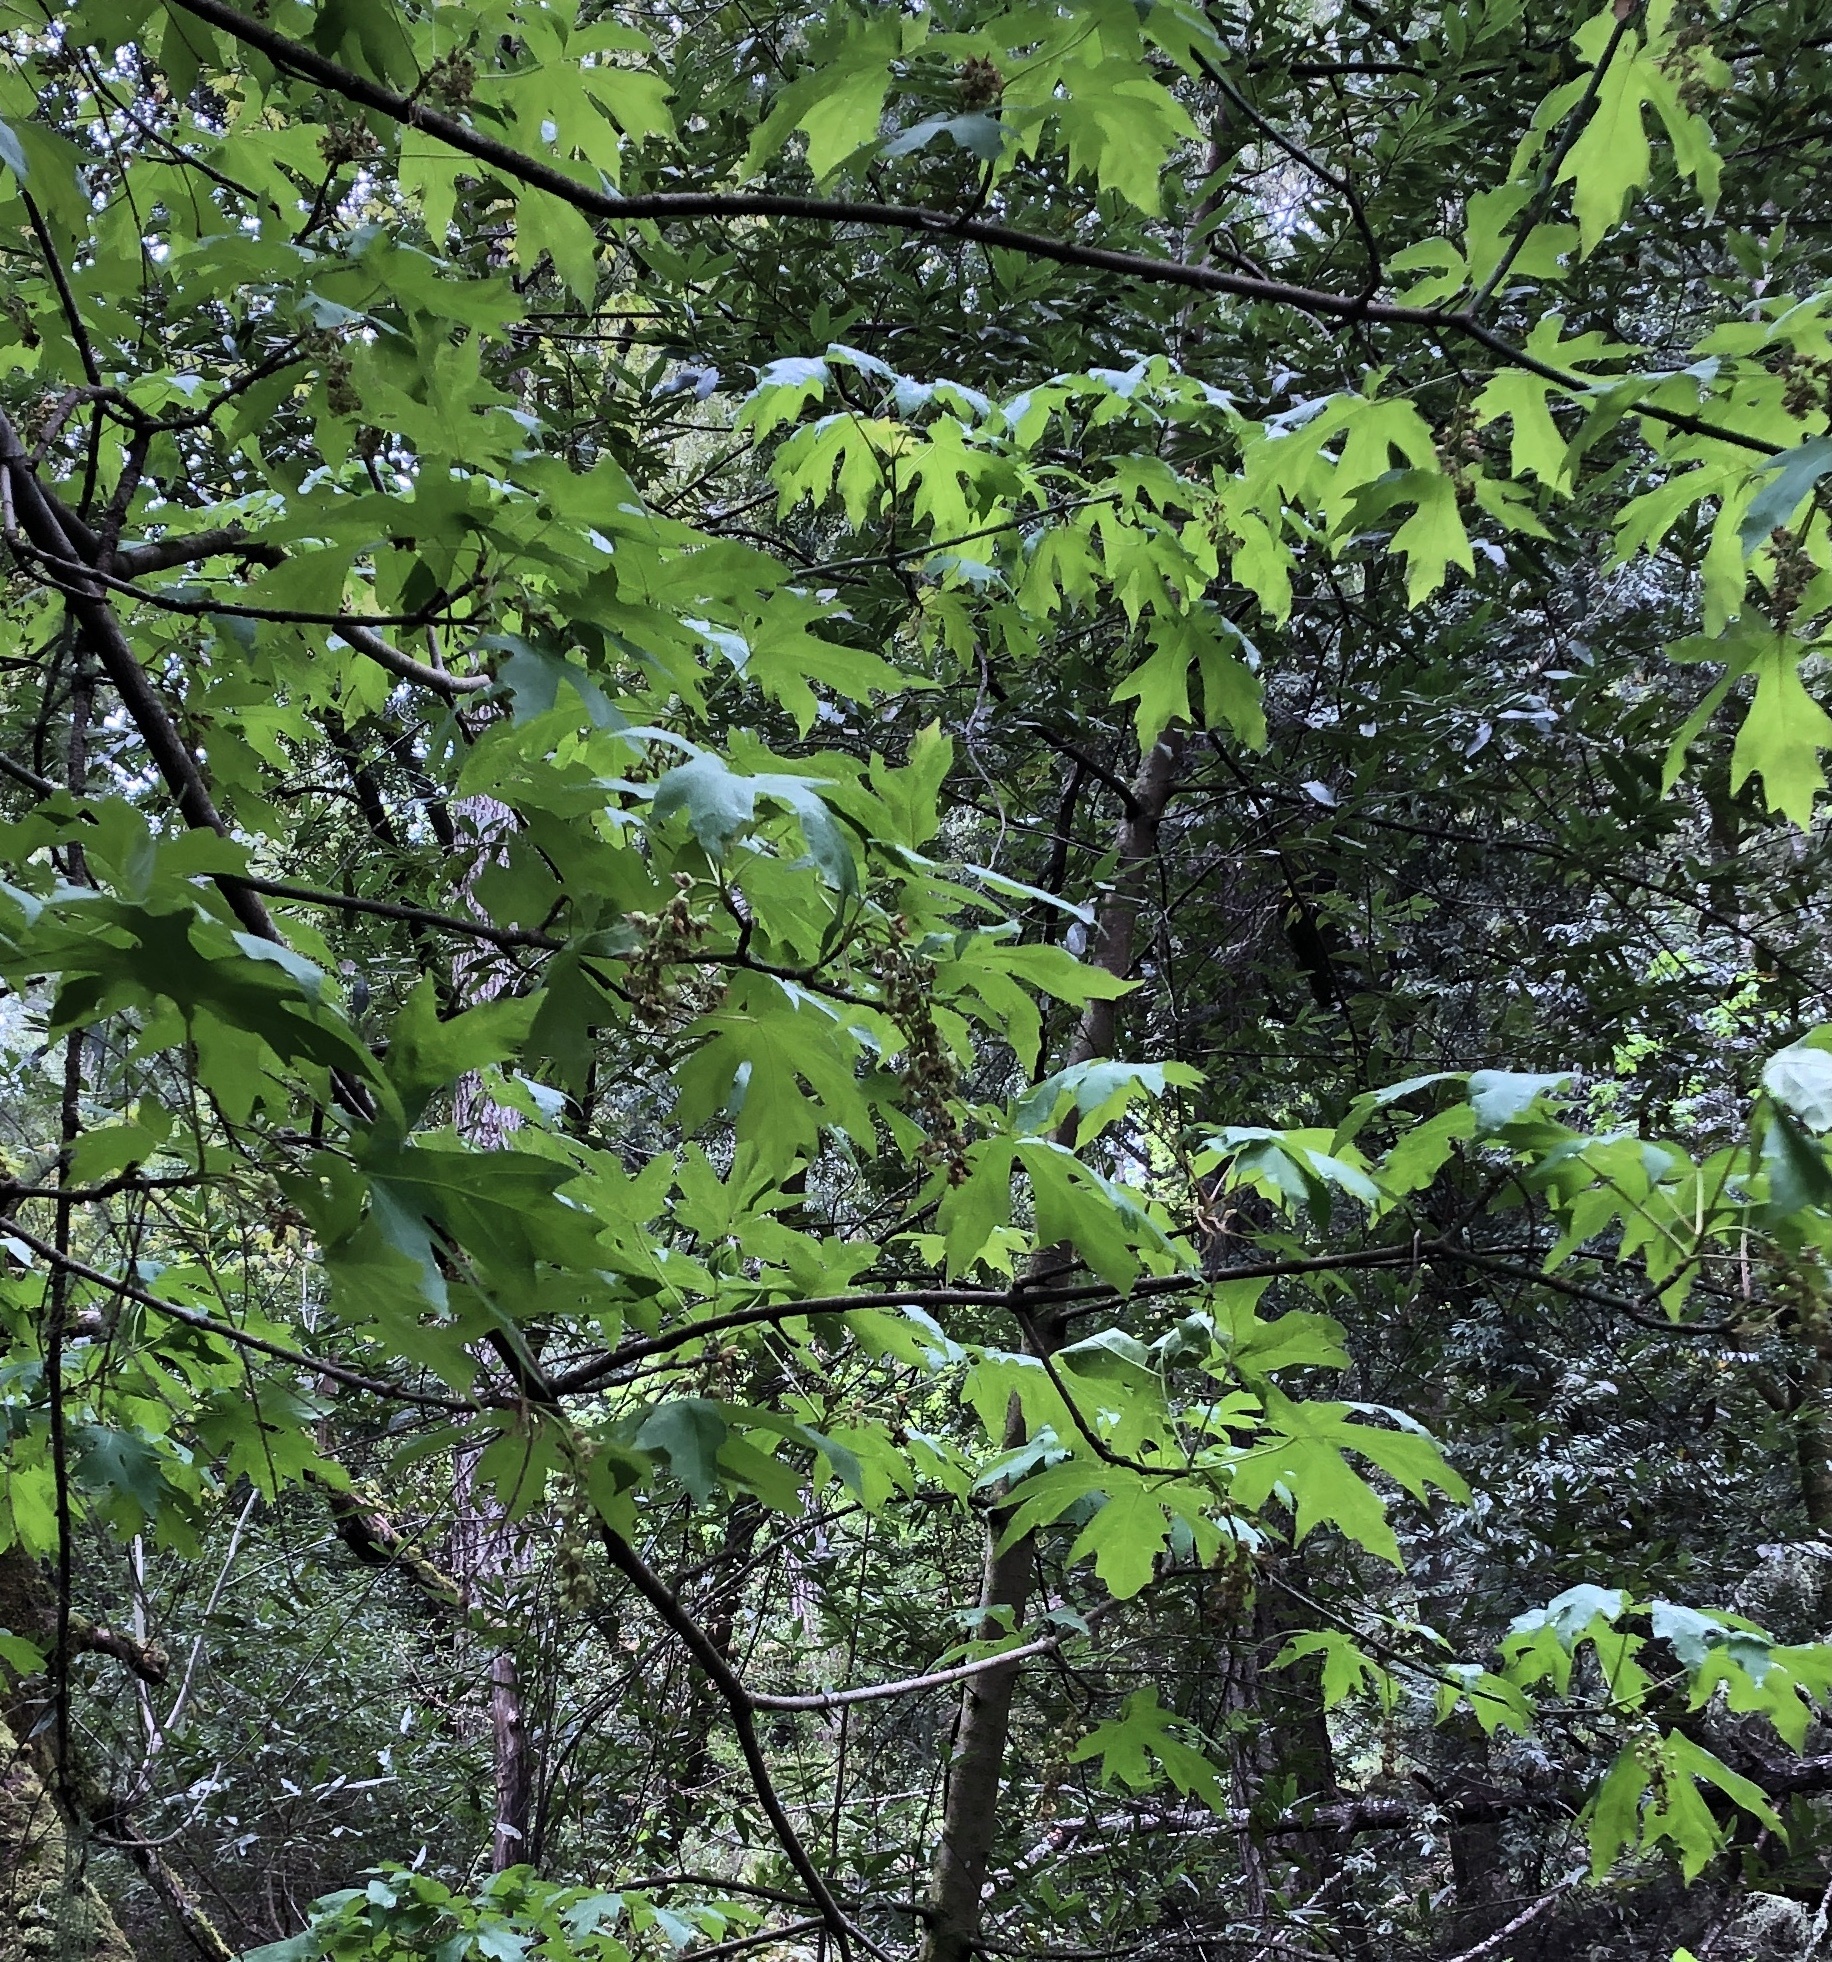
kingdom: Plantae
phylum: Tracheophyta
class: Magnoliopsida
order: Sapindales
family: Sapindaceae
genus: Acer
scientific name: Acer macrophyllum
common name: Oregon maple
